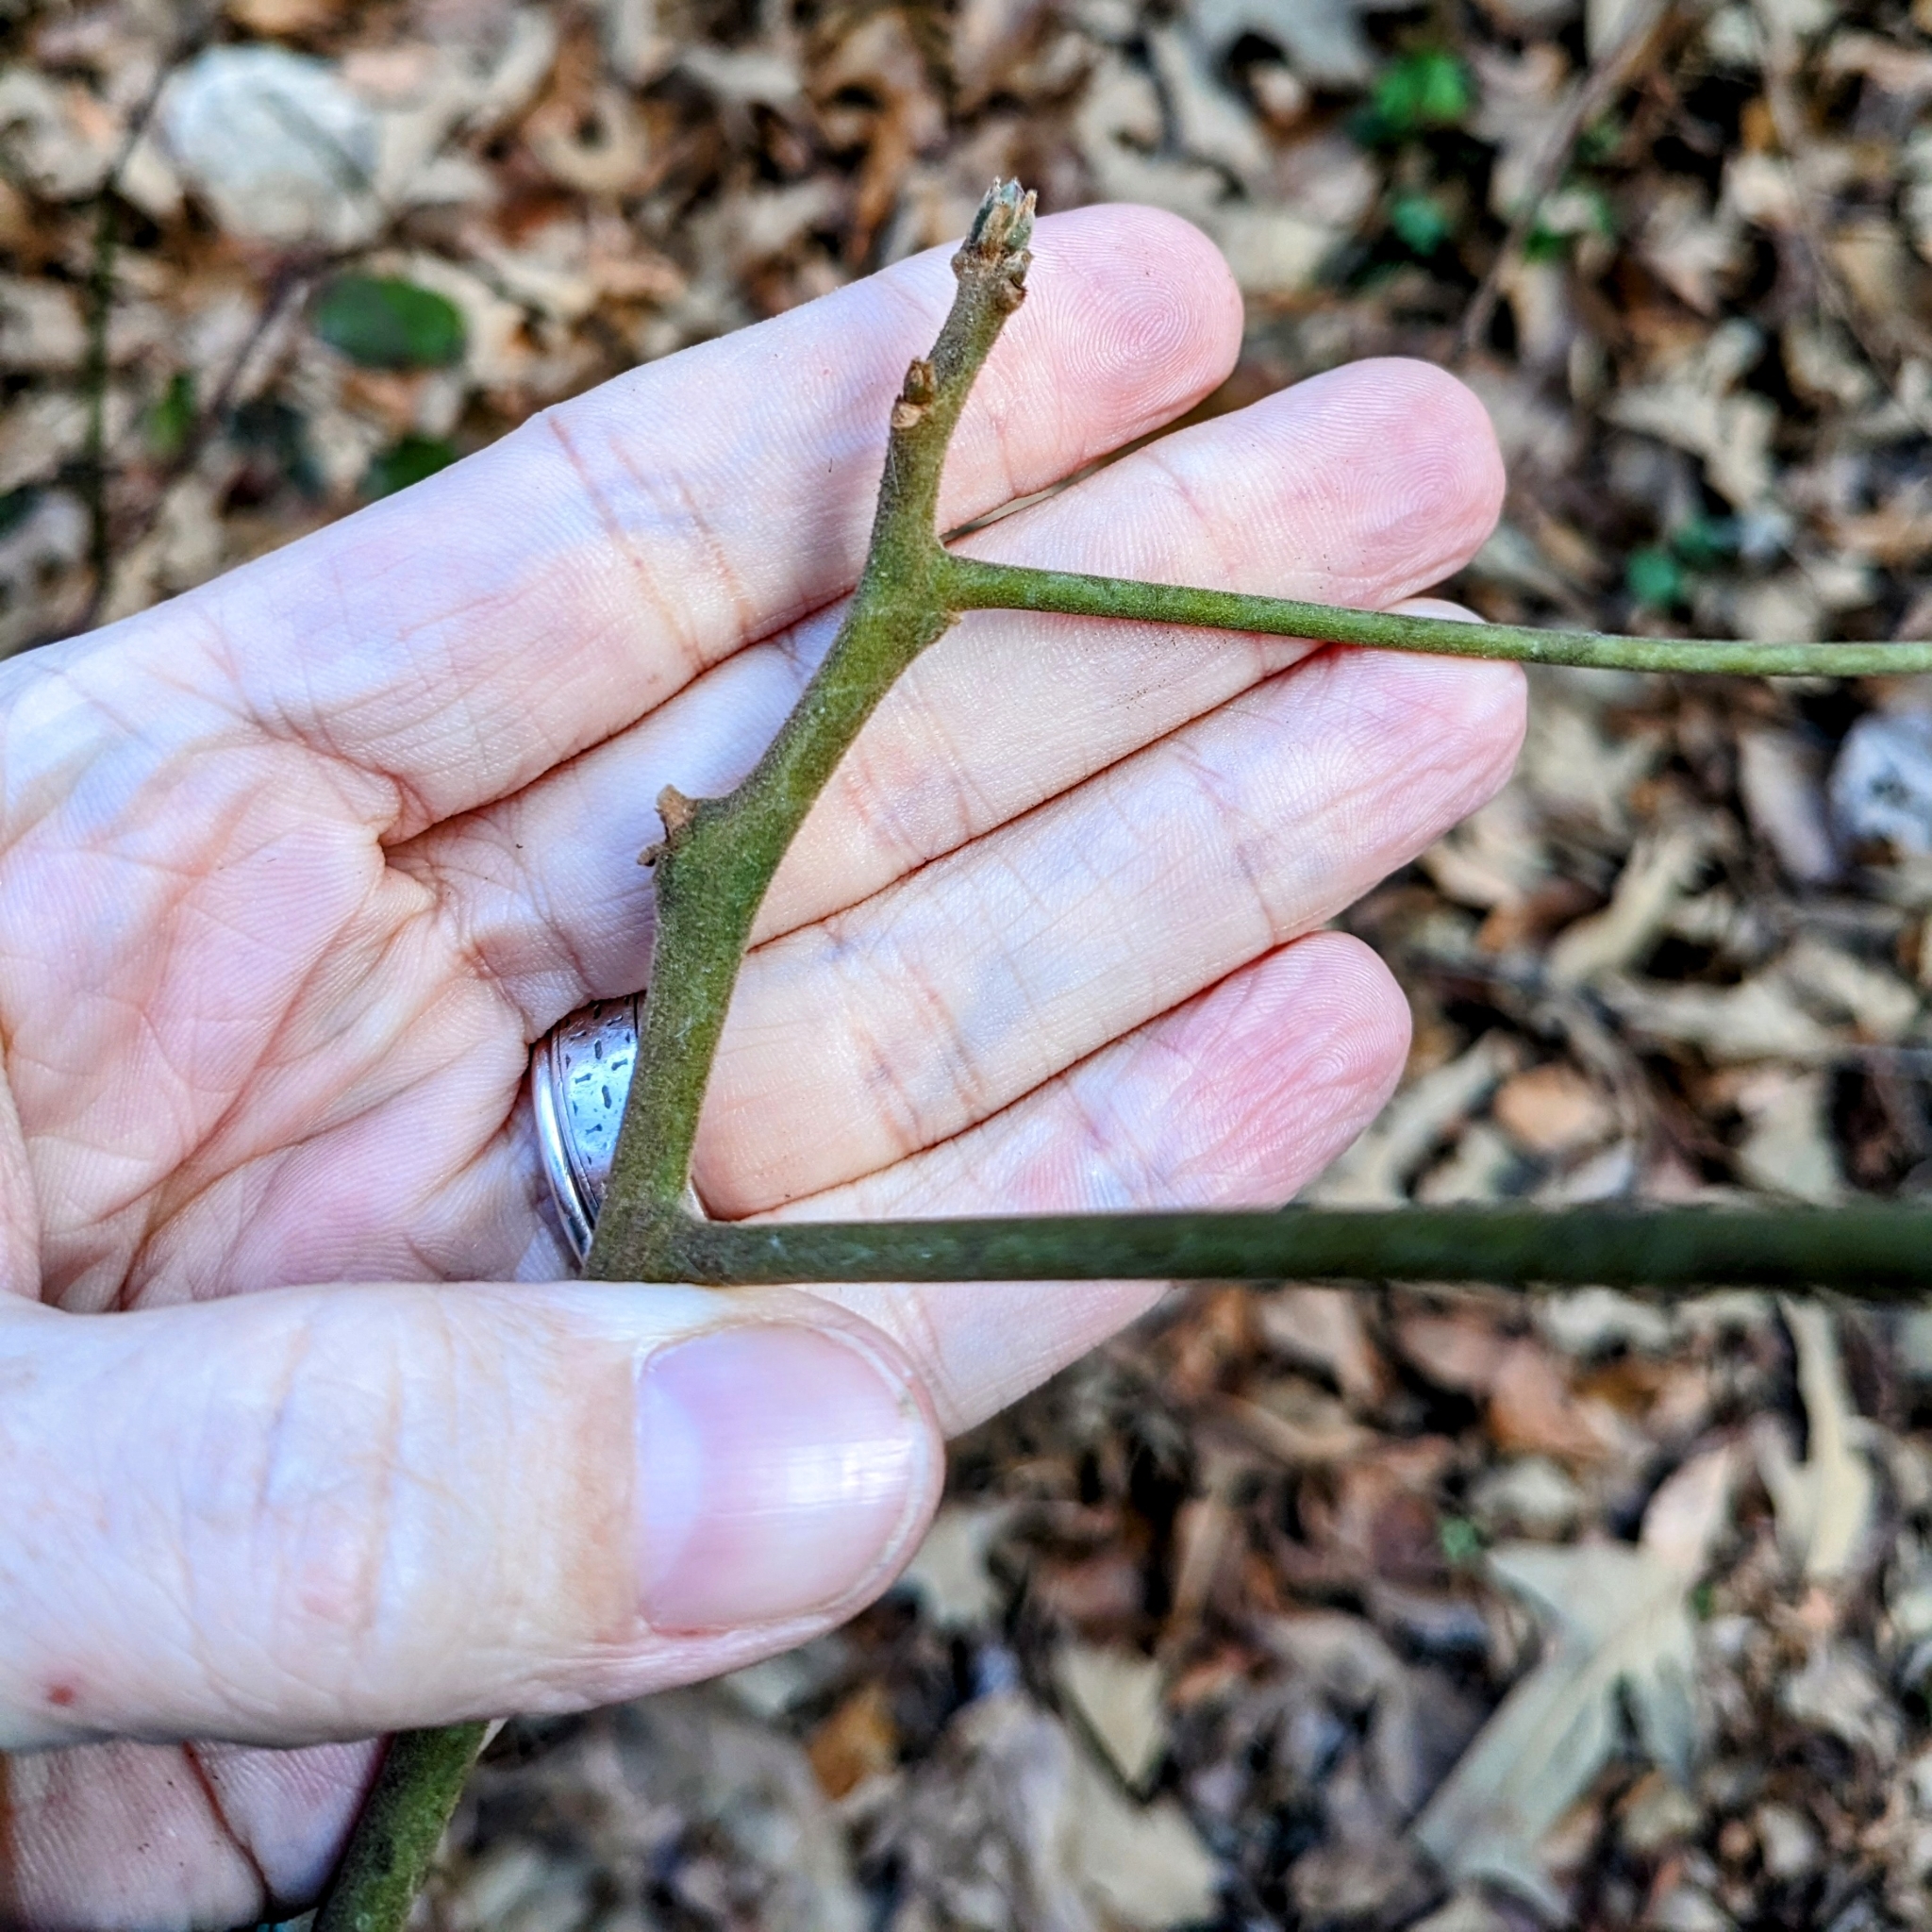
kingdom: Plantae
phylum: Tracheophyta
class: Magnoliopsida
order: Laurales
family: Lauraceae
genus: Sassafras
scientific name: Sassafras albidum
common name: Sassafras
